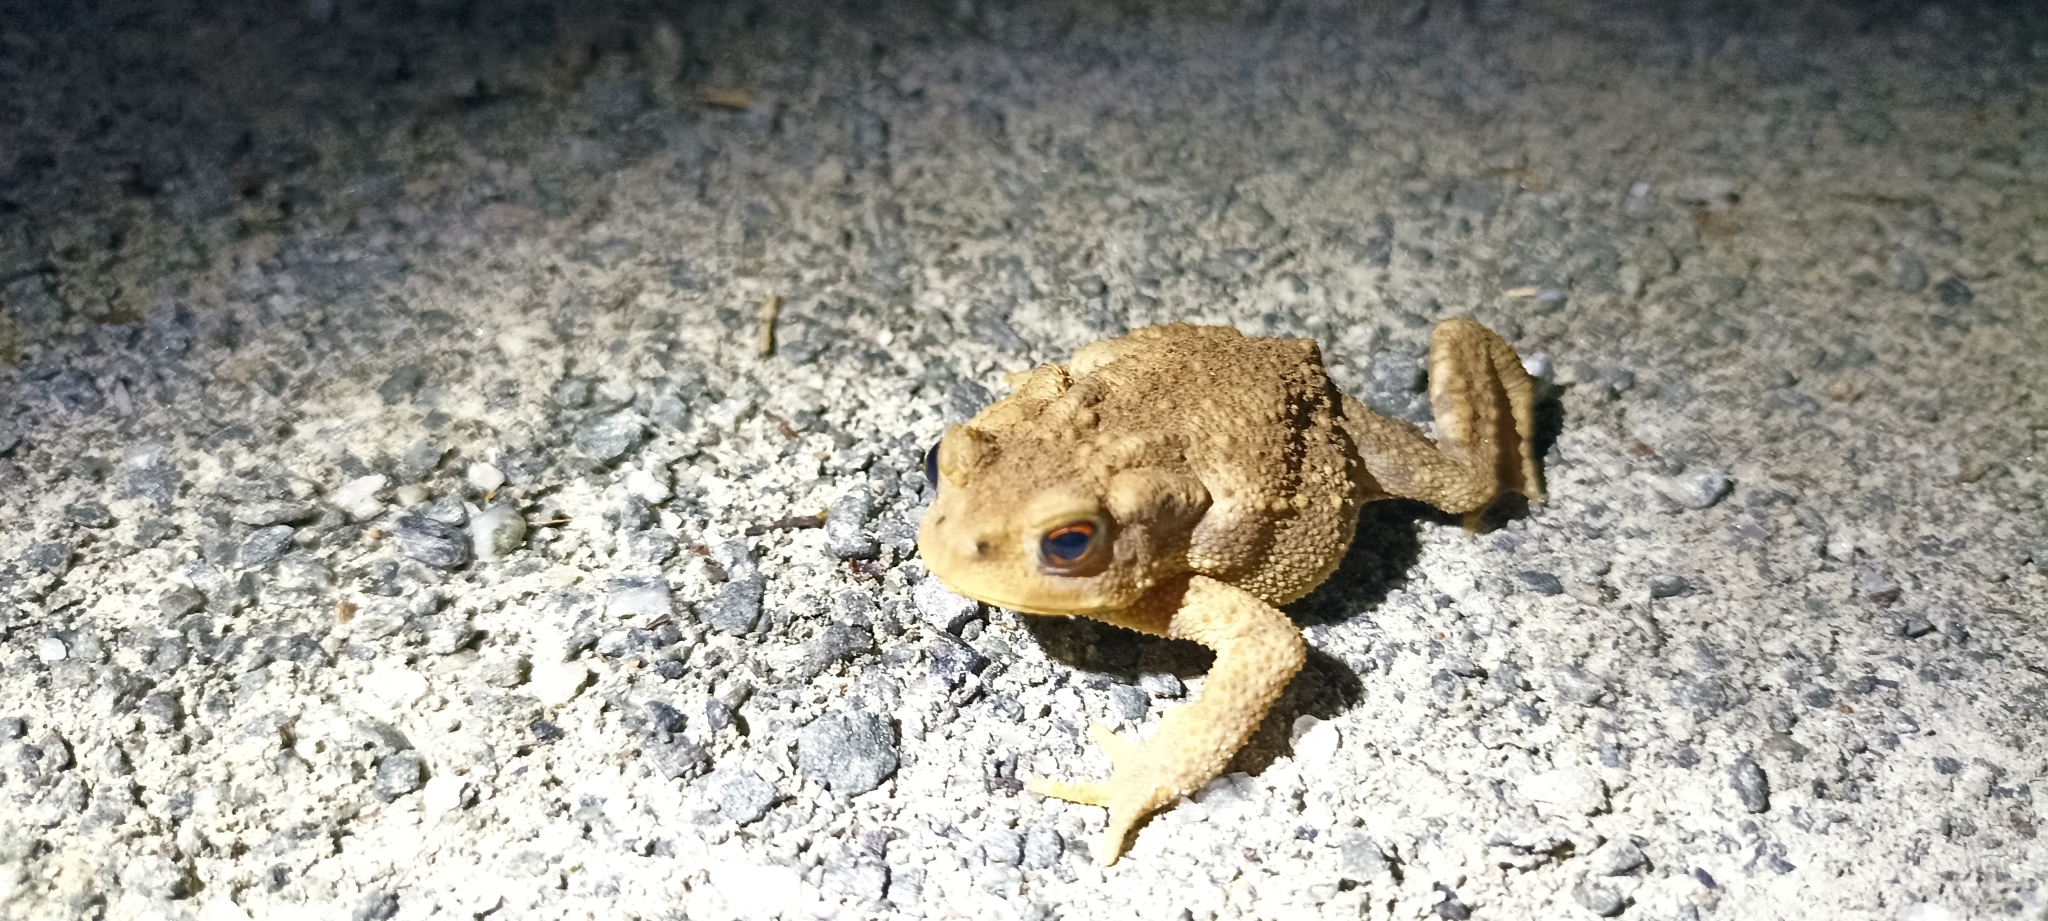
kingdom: Animalia
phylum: Chordata
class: Amphibia
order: Anura
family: Bufonidae
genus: Bufo
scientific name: Bufo spinosus
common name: Western common toad
